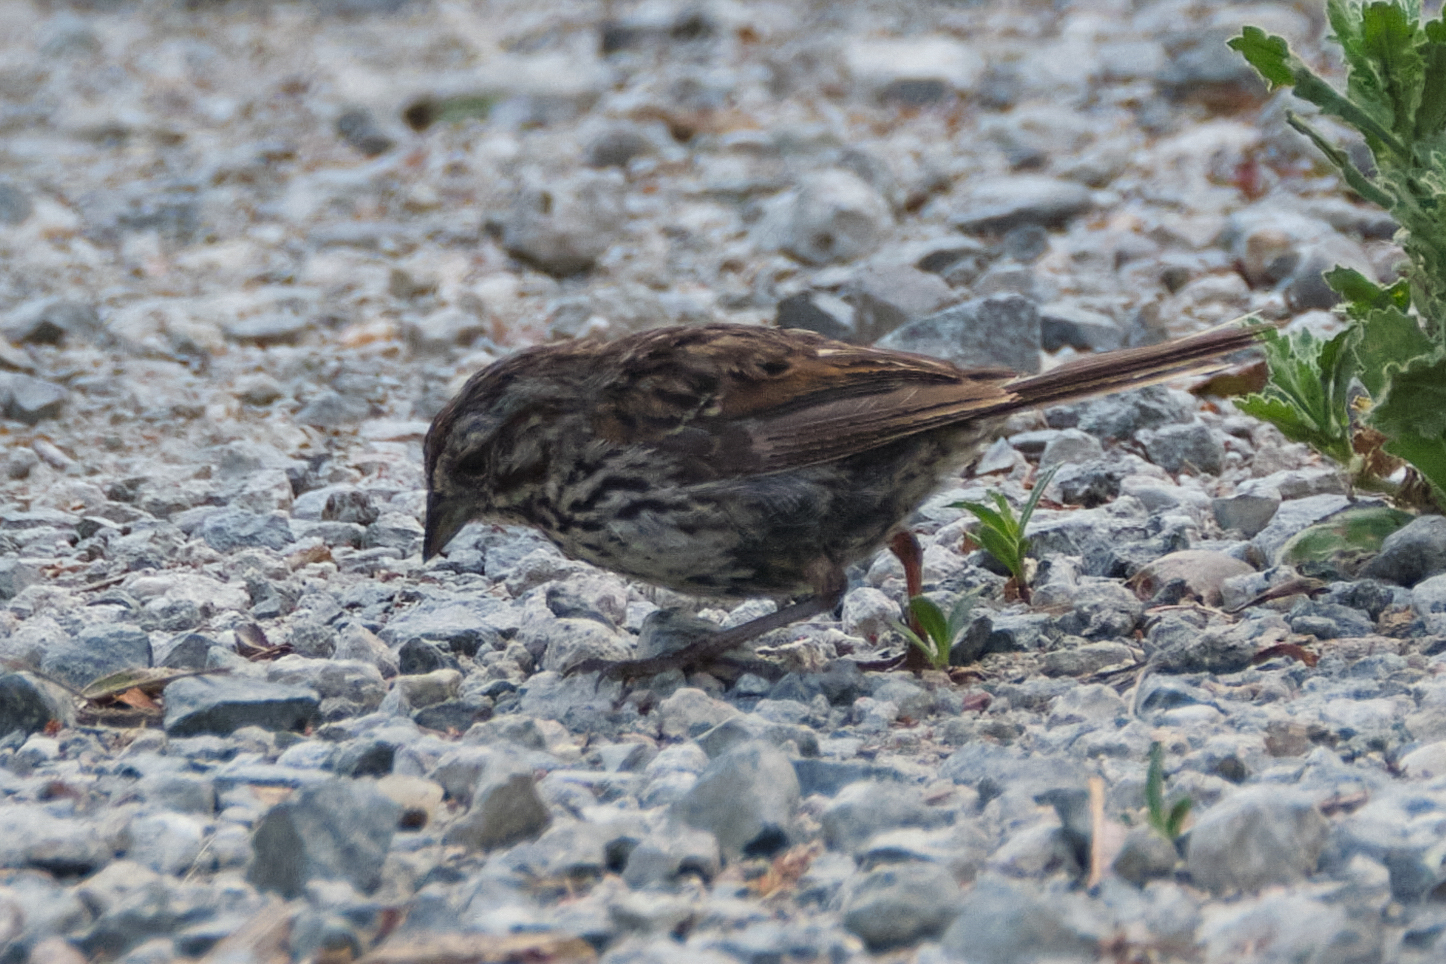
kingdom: Animalia
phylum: Chordata
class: Aves
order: Passeriformes
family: Passerellidae
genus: Melospiza
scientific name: Melospiza melodia
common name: Song sparrow
